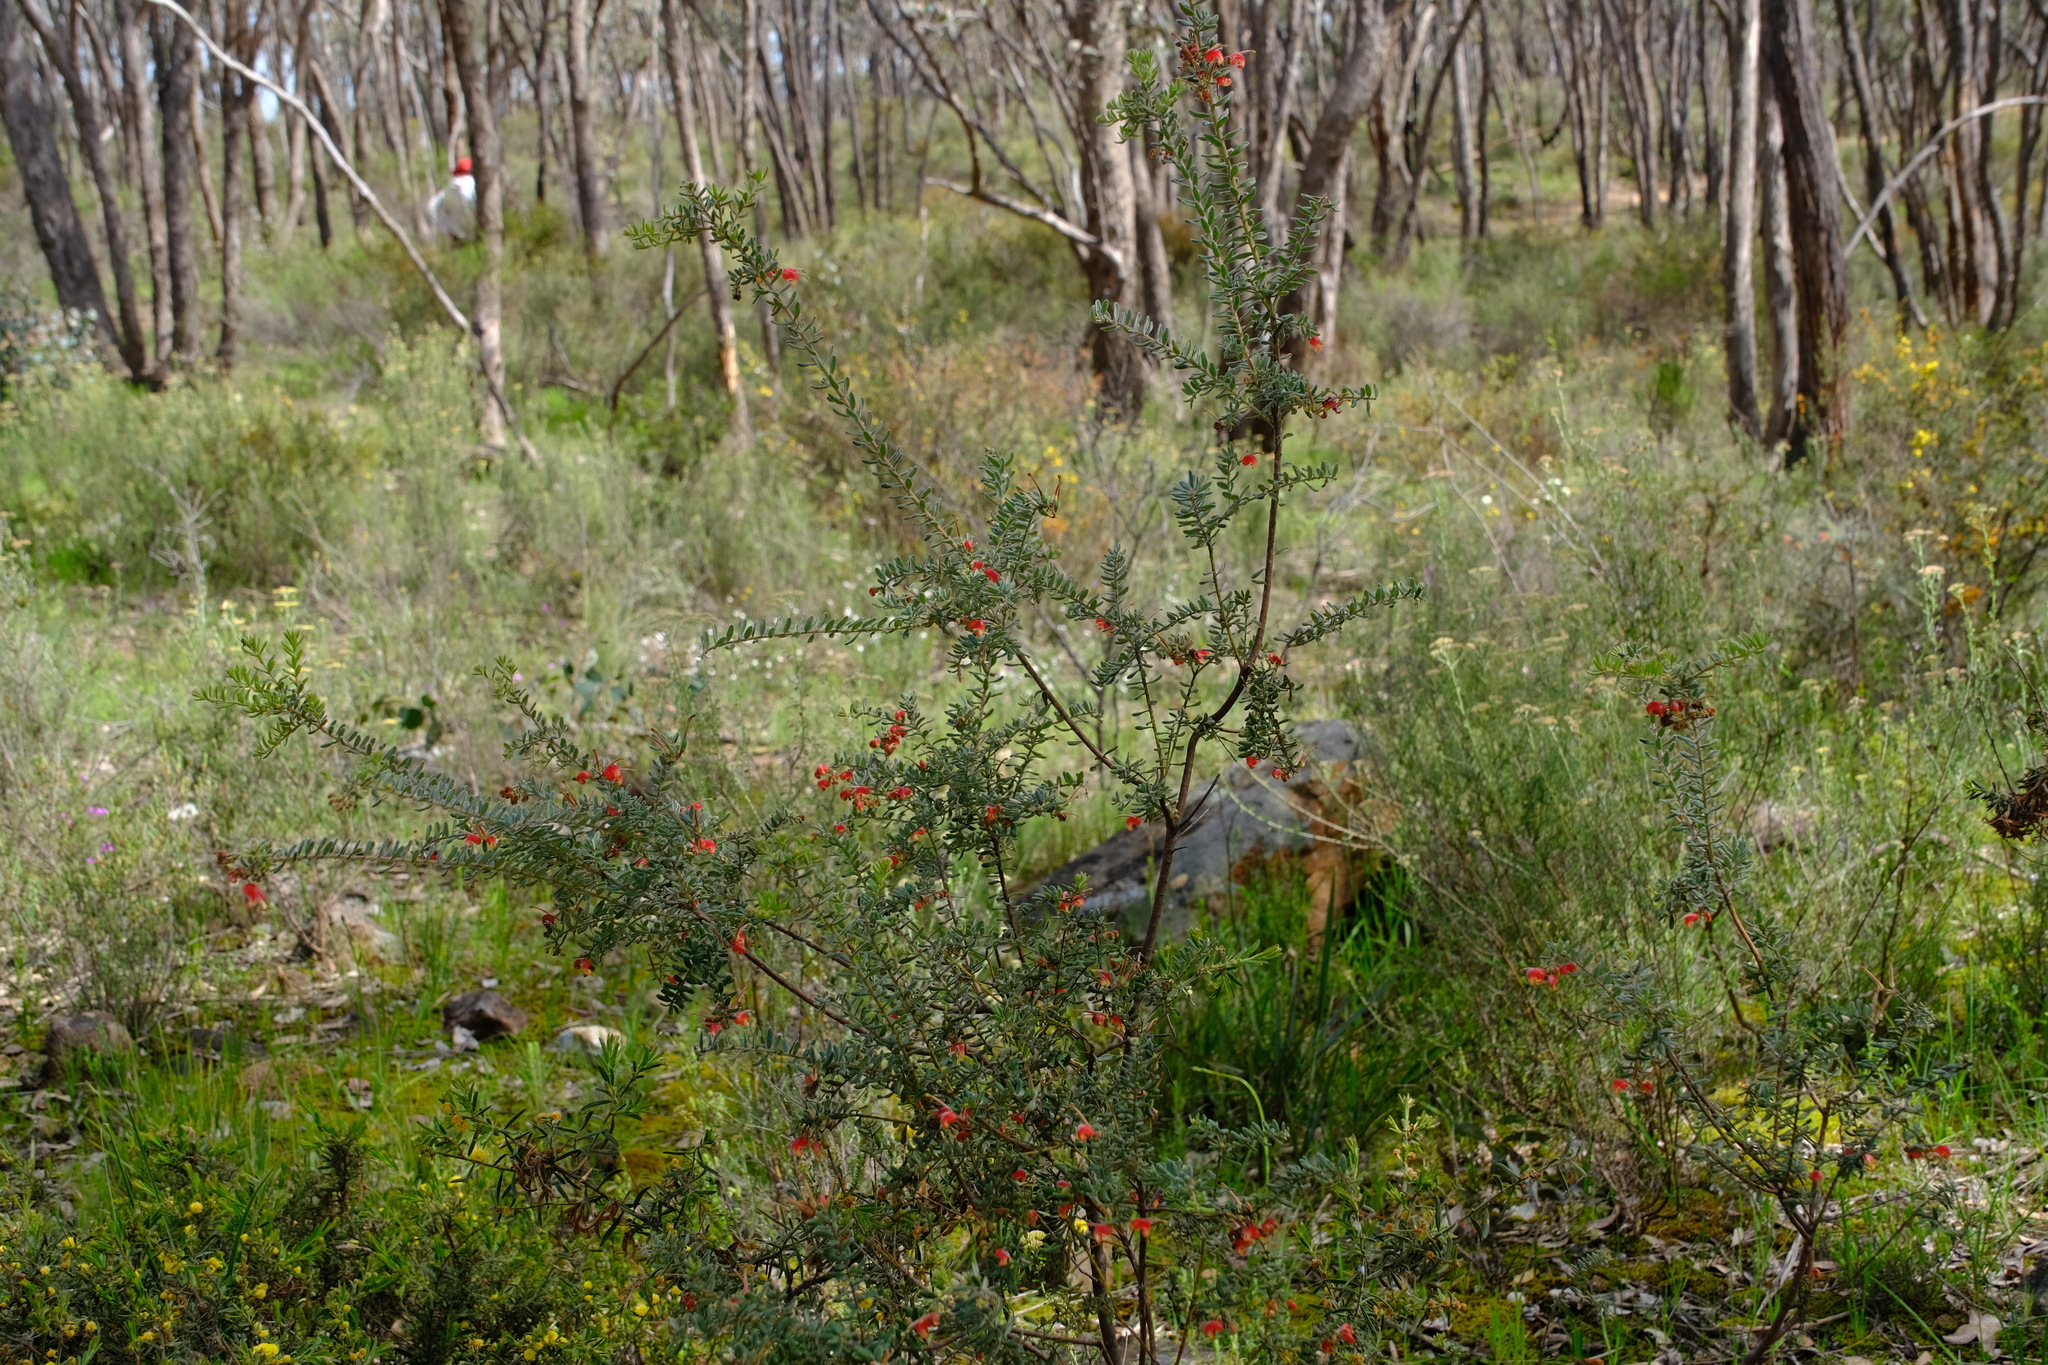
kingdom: Plantae
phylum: Tracheophyta
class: Magnoliopsida
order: Proteales
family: Proteaceae
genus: Grevillea
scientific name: Grevillea alpina
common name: Catclaws grevillea
